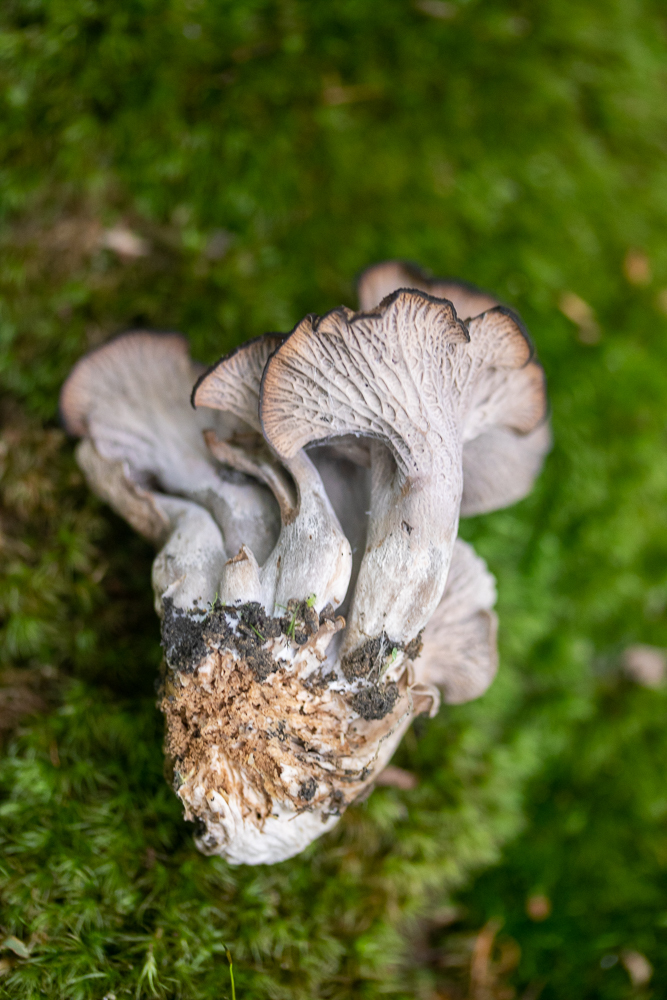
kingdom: Fungi
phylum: Basidiomycota
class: Agaricomycetes
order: Cantharellales
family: Hydnaceae
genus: Craterellus
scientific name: Craterellus foetidus
